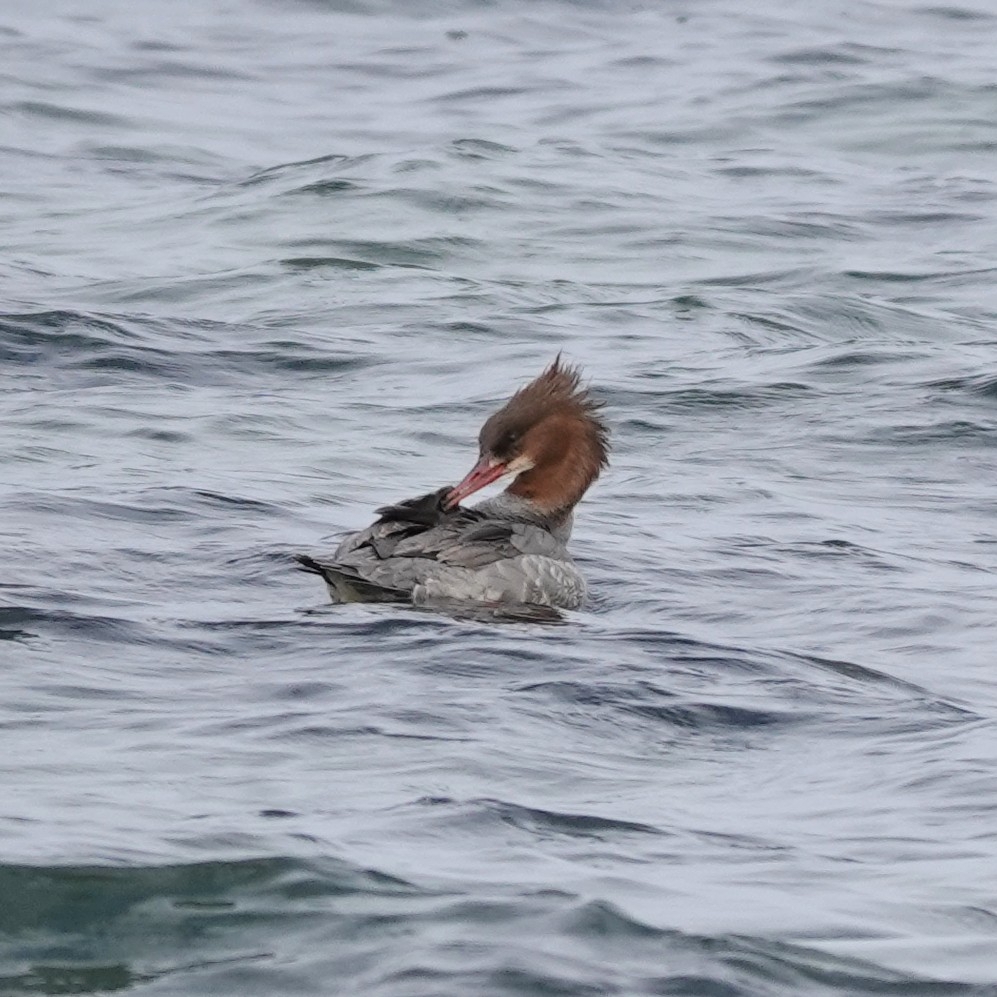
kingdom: Animalia
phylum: Chordata
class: Aves
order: Anseriformes
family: Anatidae
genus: Mergus
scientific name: Mergus merganser
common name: Common merganser
